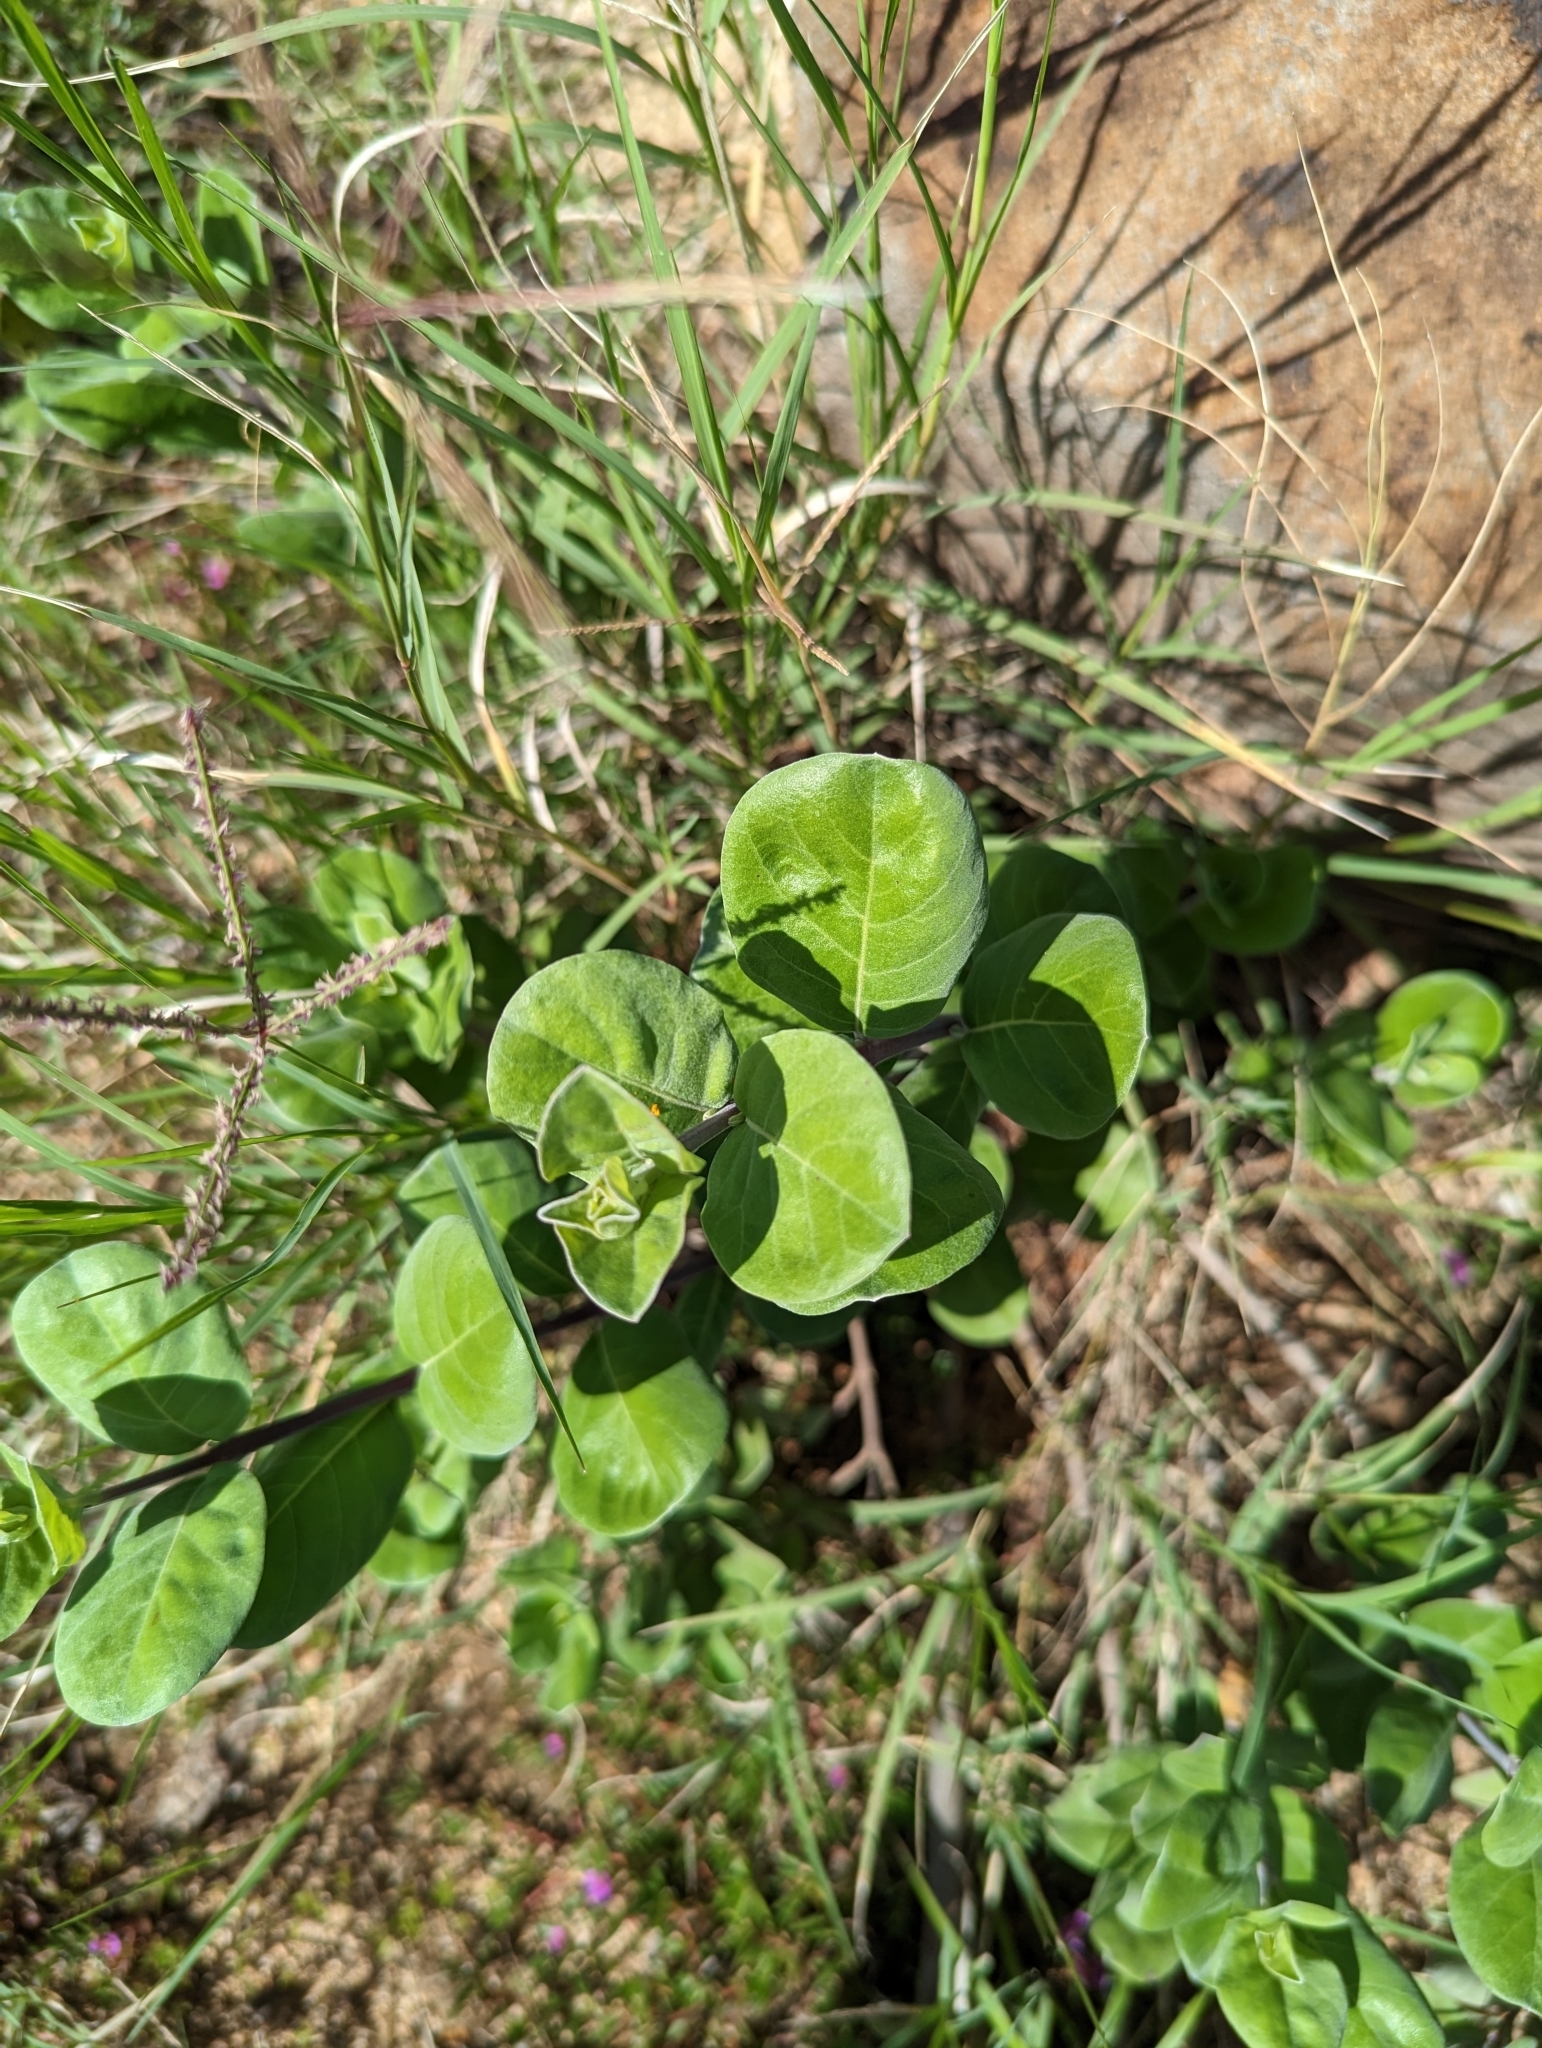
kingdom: Plantae
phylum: Tracheophyta
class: Magnoliopsida
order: Lamiales
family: Lamiaceae
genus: Vitex
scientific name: Vitex rotundifolia
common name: Beach vitex
